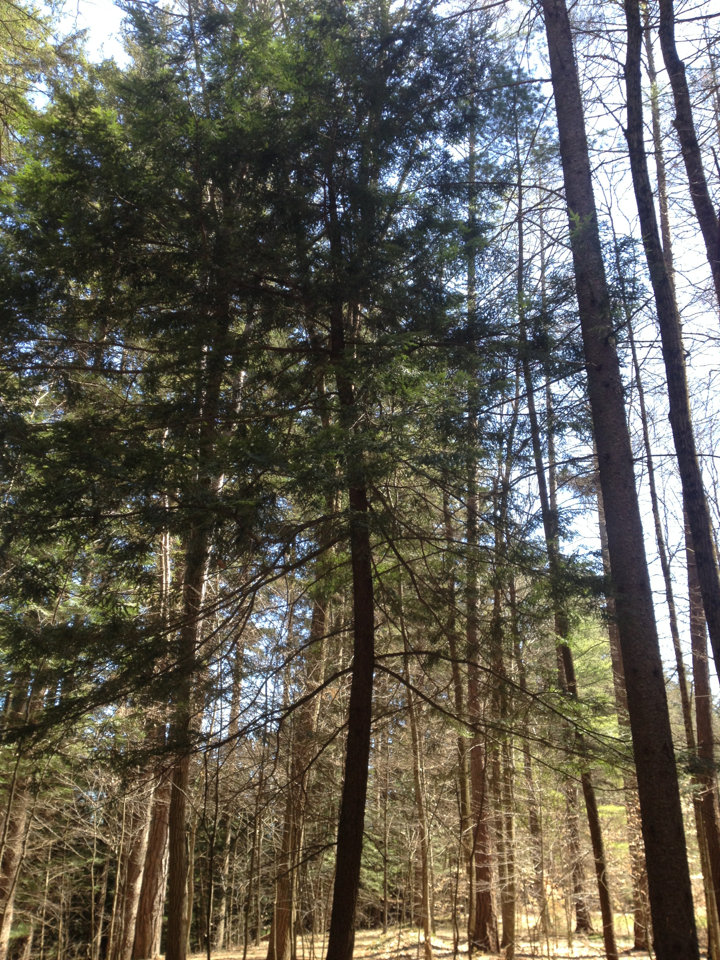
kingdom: Plantae
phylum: Tracheophyta
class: Pinopsida
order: Pinales
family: Pinaceae
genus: Tsuga
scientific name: Tsuga canadensis
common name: Eastern hemlock
